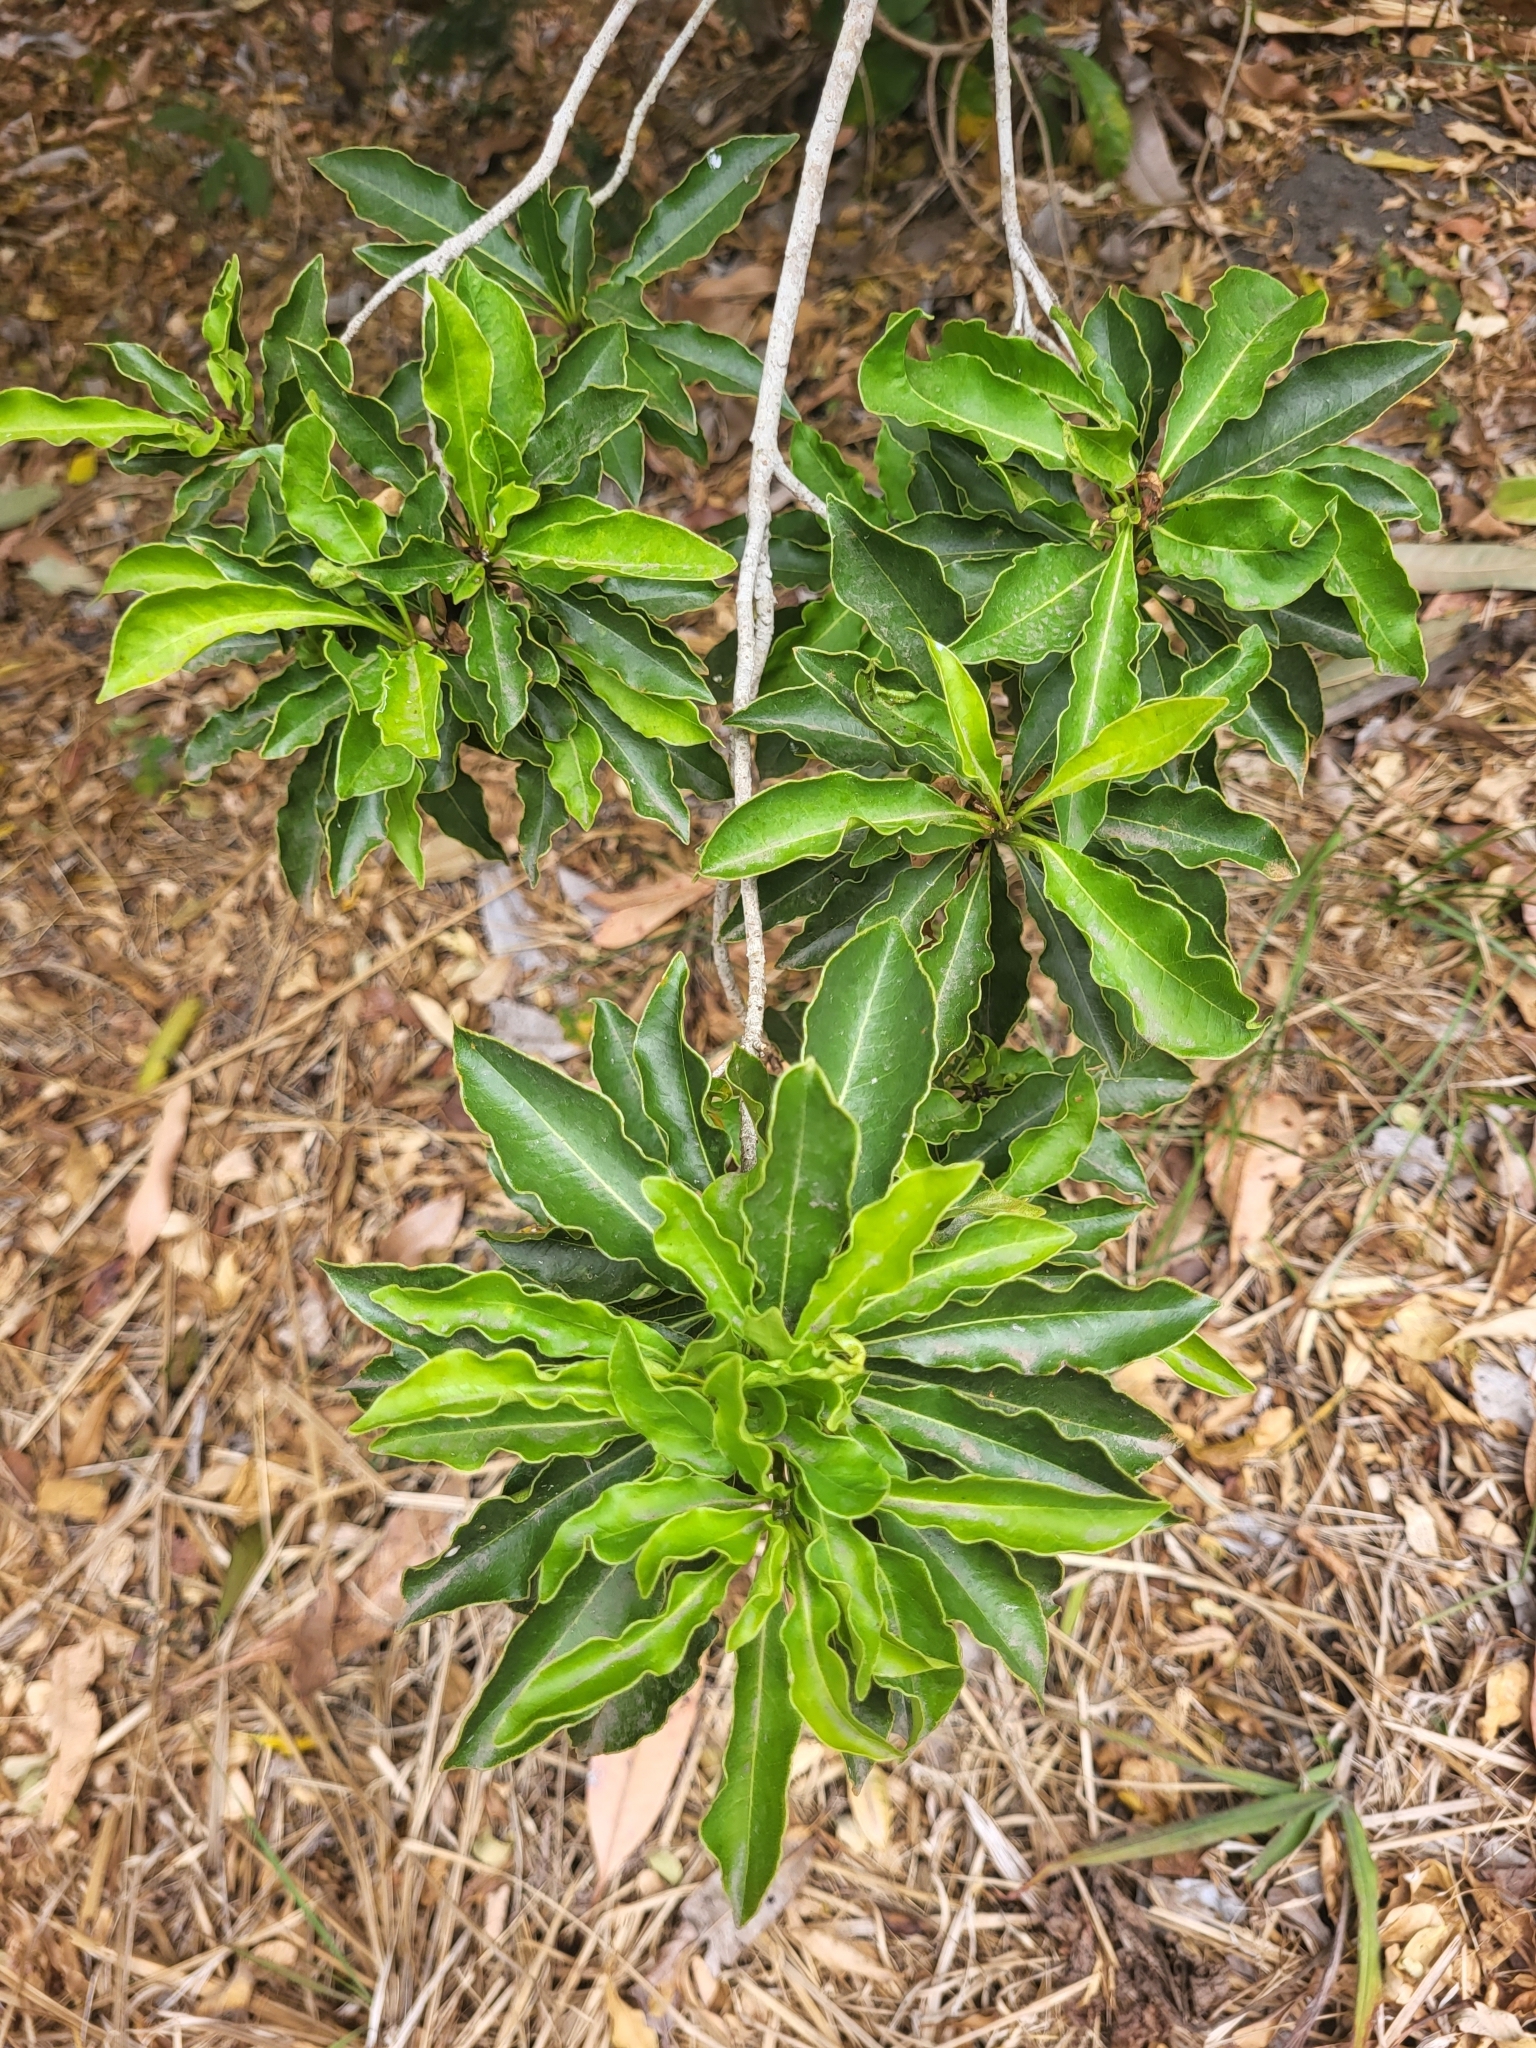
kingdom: Plantae
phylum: Tracheophyta
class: Magnoliopsida
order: Apiales
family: Pittosporaceae
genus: Pittosporum
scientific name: Pittosporum senacia
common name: Cheesewood
